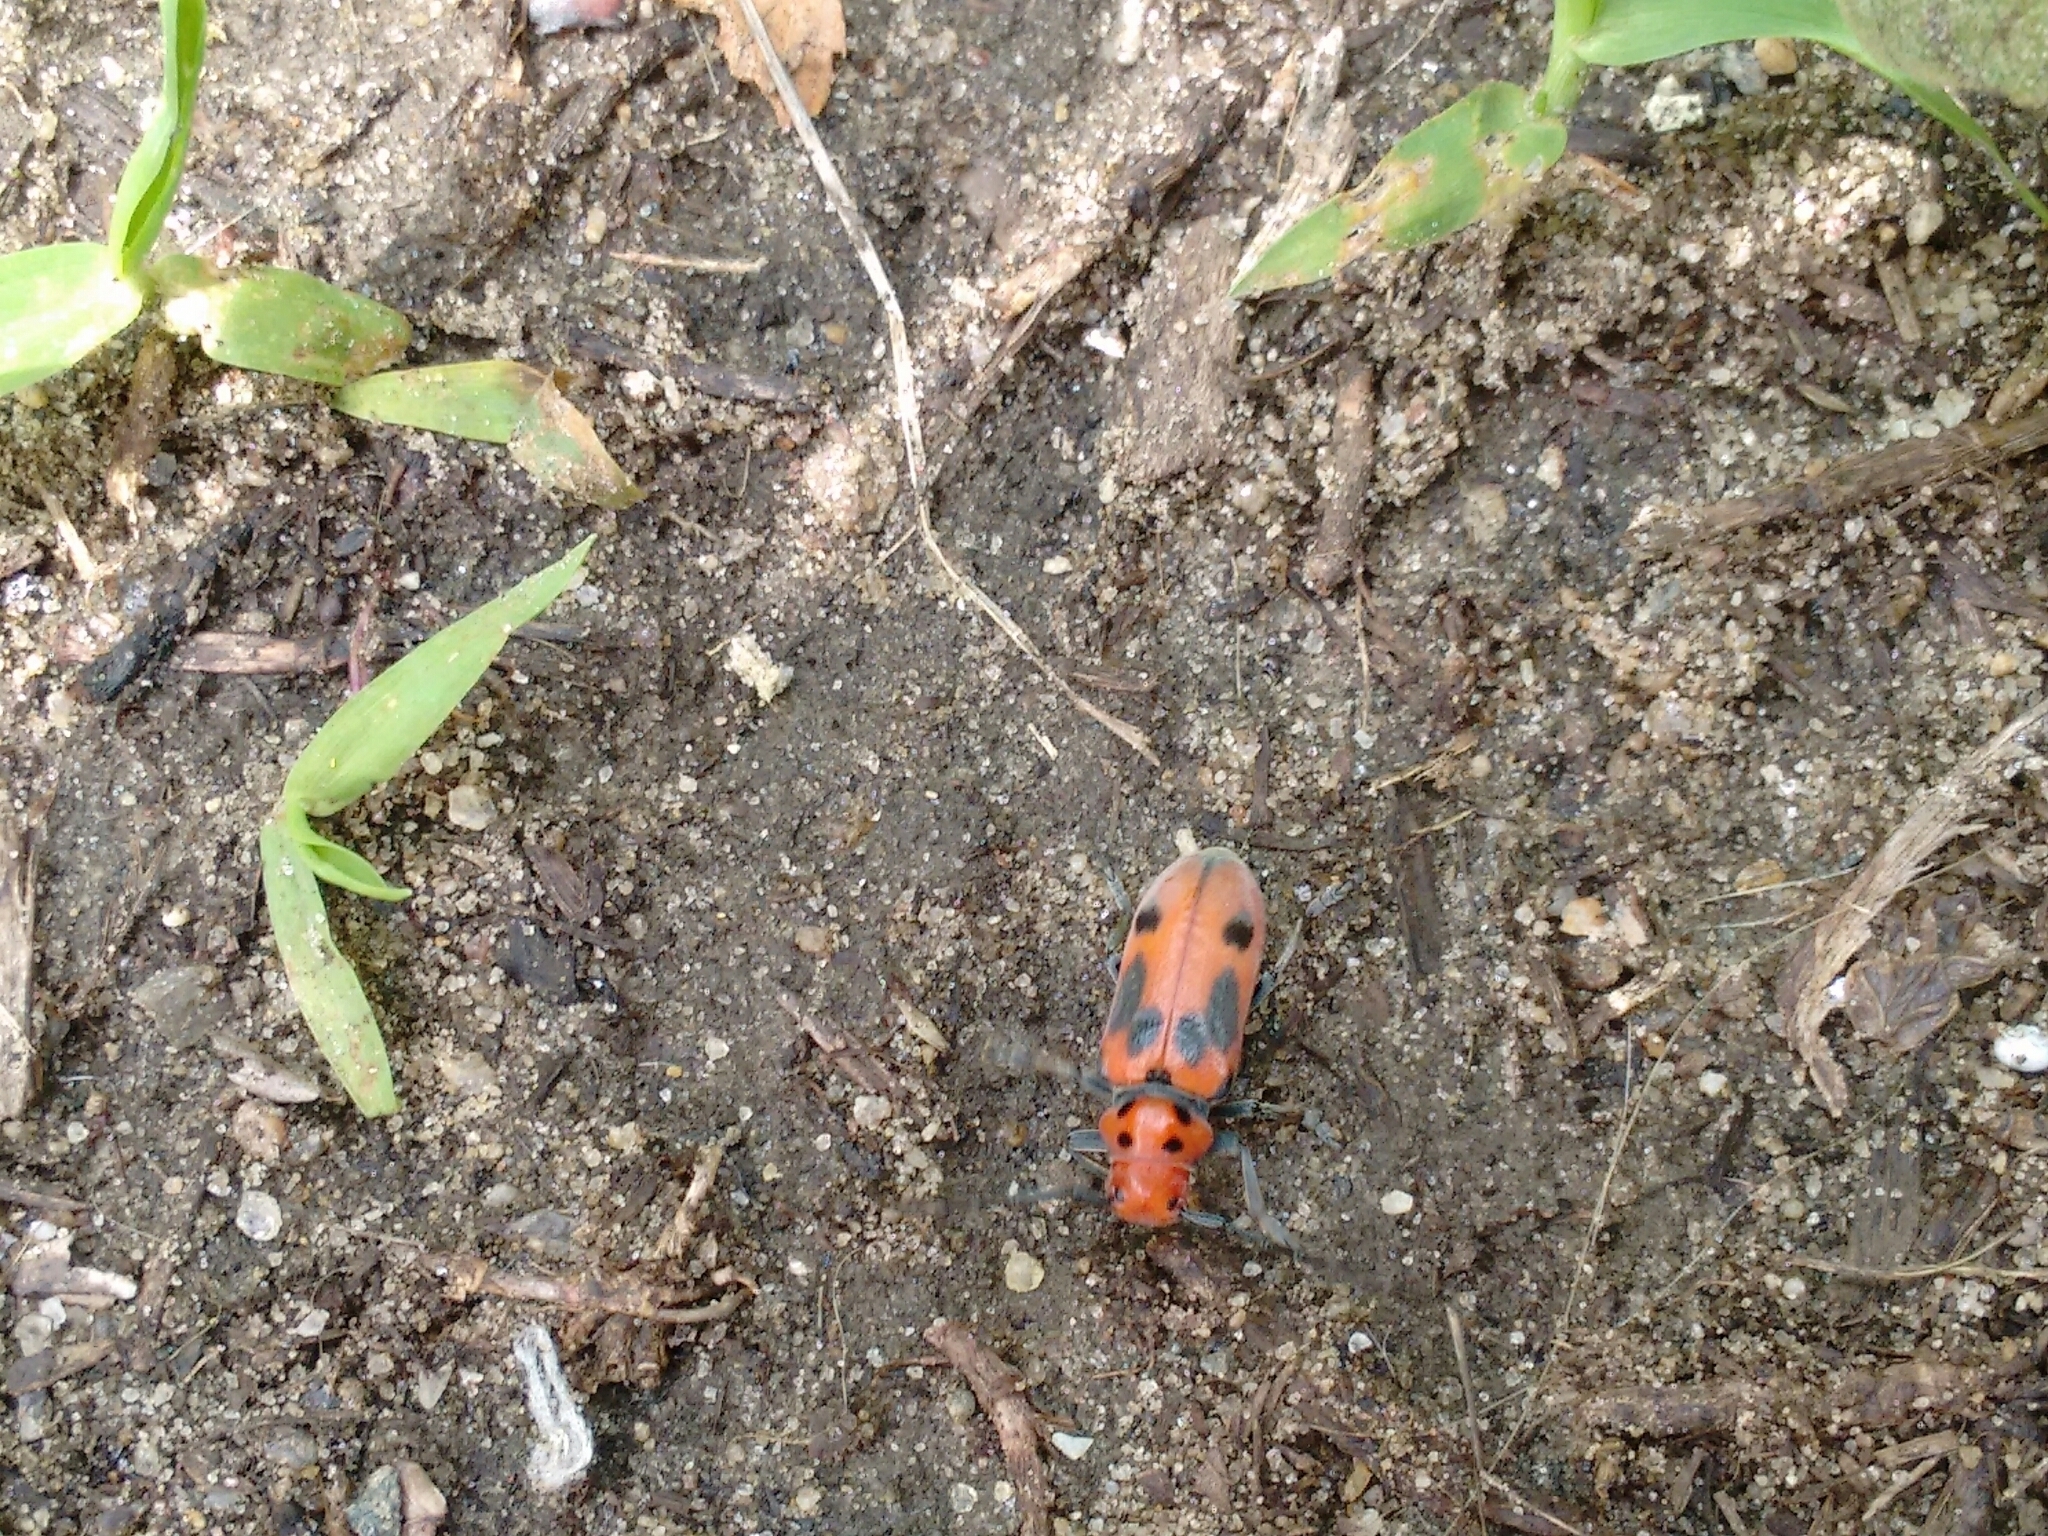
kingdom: Animalia
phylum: Arthropoda
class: Insecta
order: Coleoptera
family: Cerambycidae
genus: Tetraopes
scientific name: Tetraopes tetrophthalmus
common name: Red milkweed beetle
